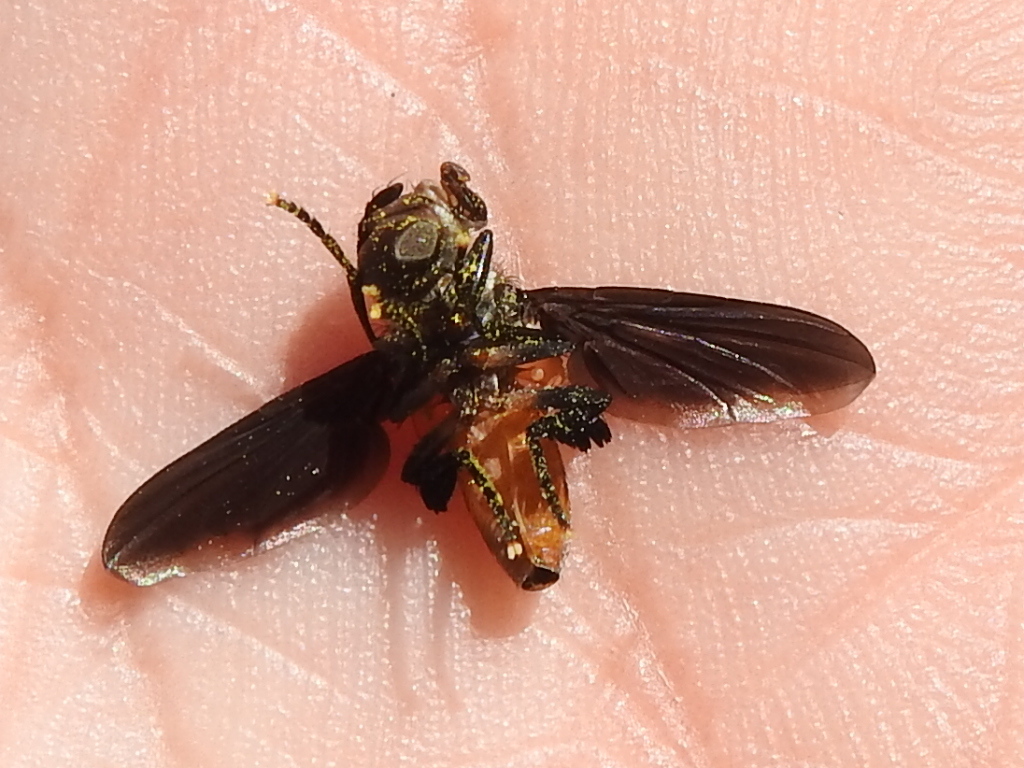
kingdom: Animalia
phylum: Arthropoda
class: Insecta
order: Diptera
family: Tachinidae
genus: Trichopoda
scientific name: Trichopoda pennipes
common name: Tachinid fly
